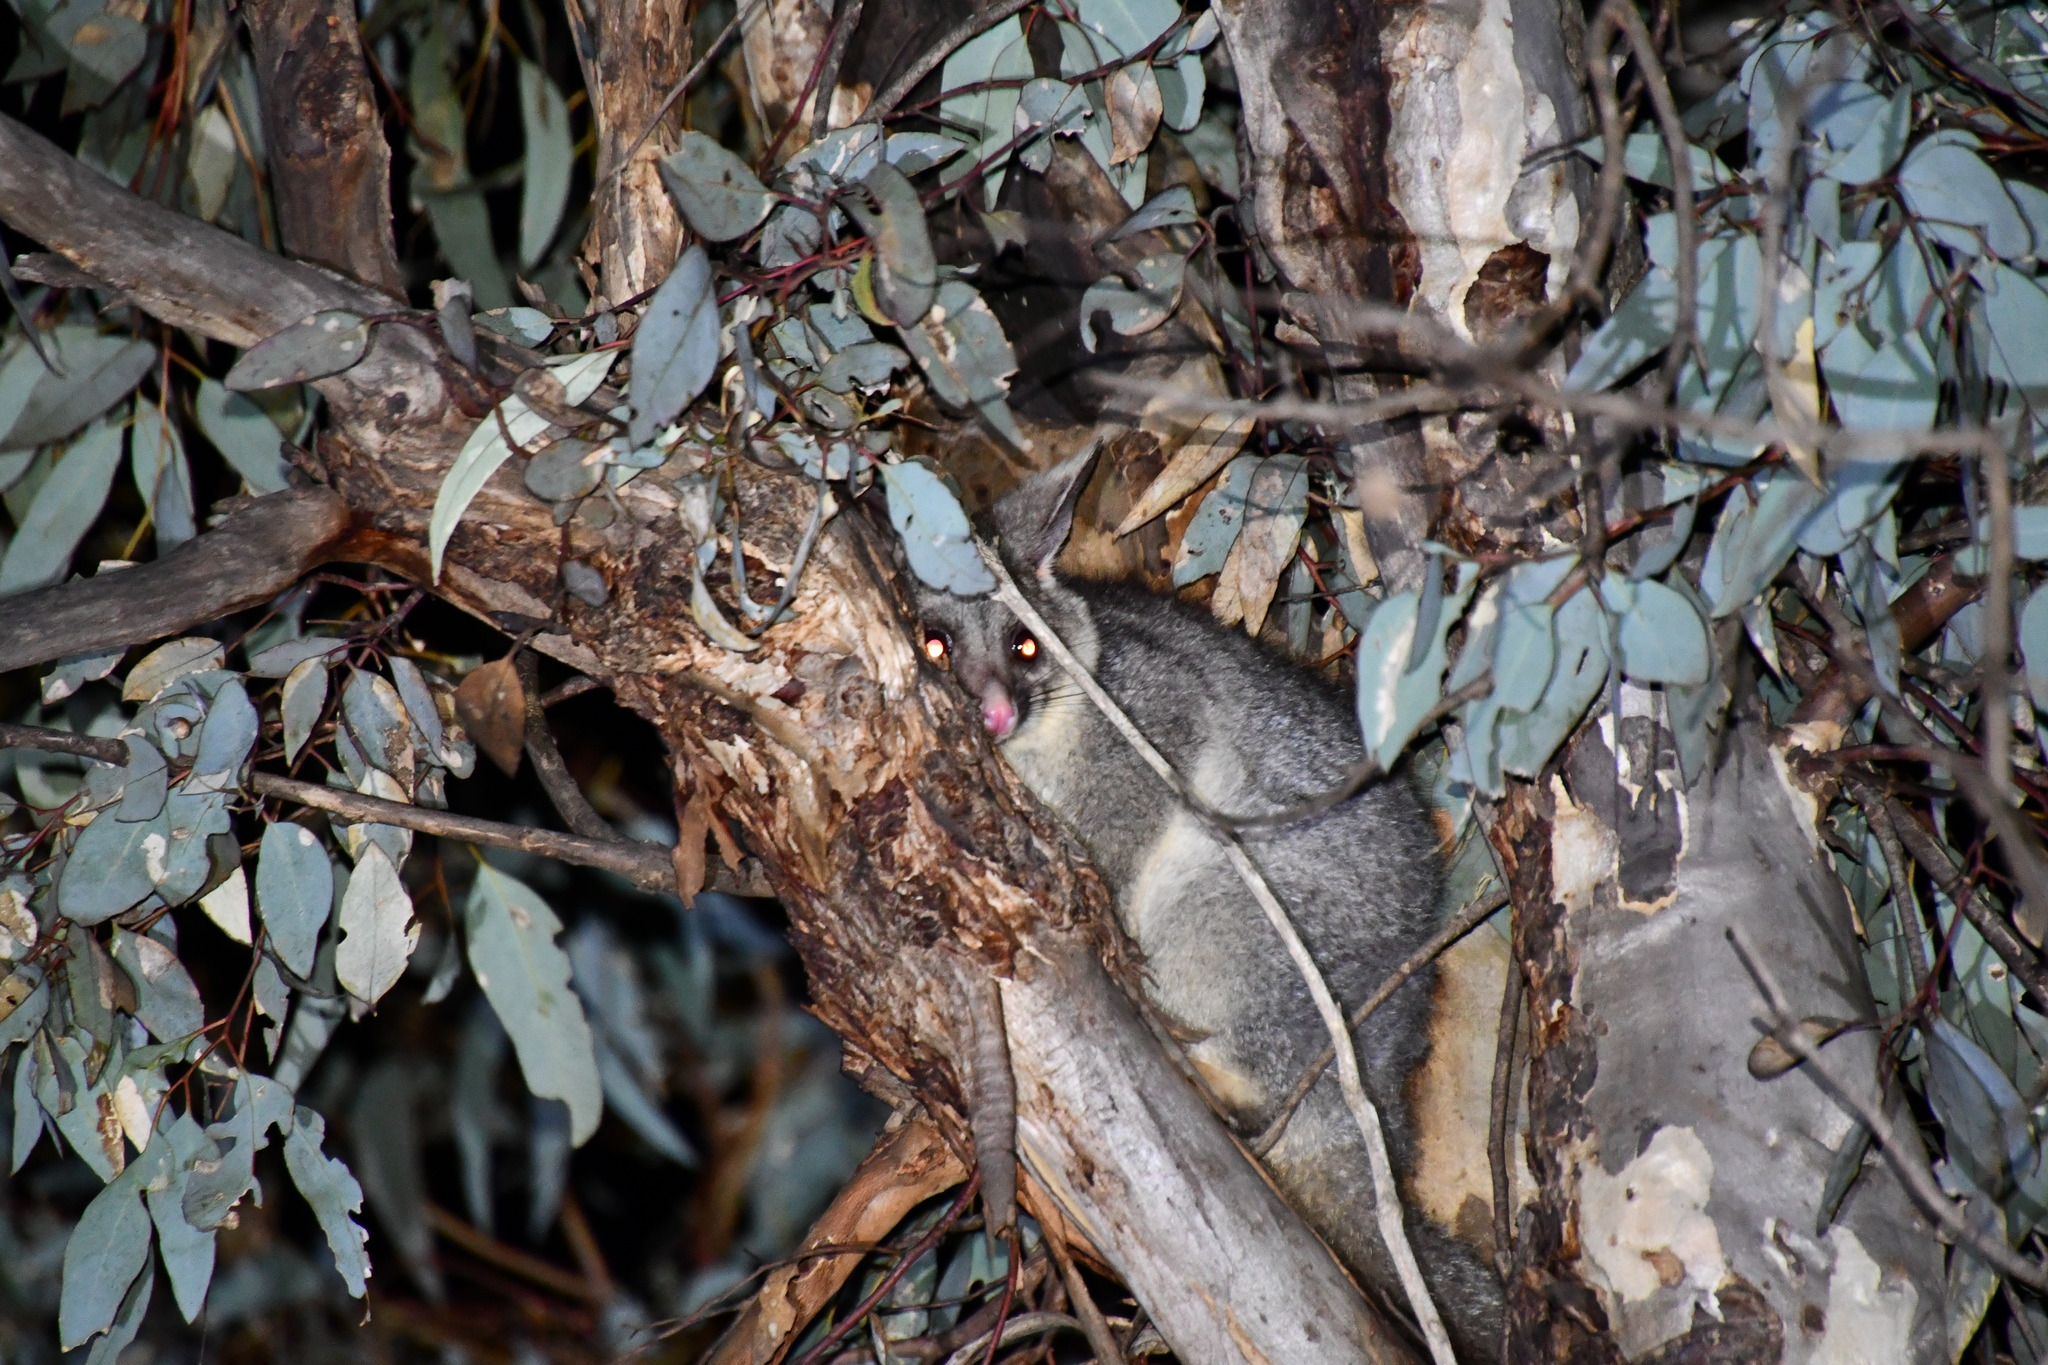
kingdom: Animalia
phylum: Chordata
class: Mammalia
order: Diprotodontia
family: Phalangeridae
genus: Trichosurus
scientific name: Trichosurus vulpecula
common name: Common brushtail
